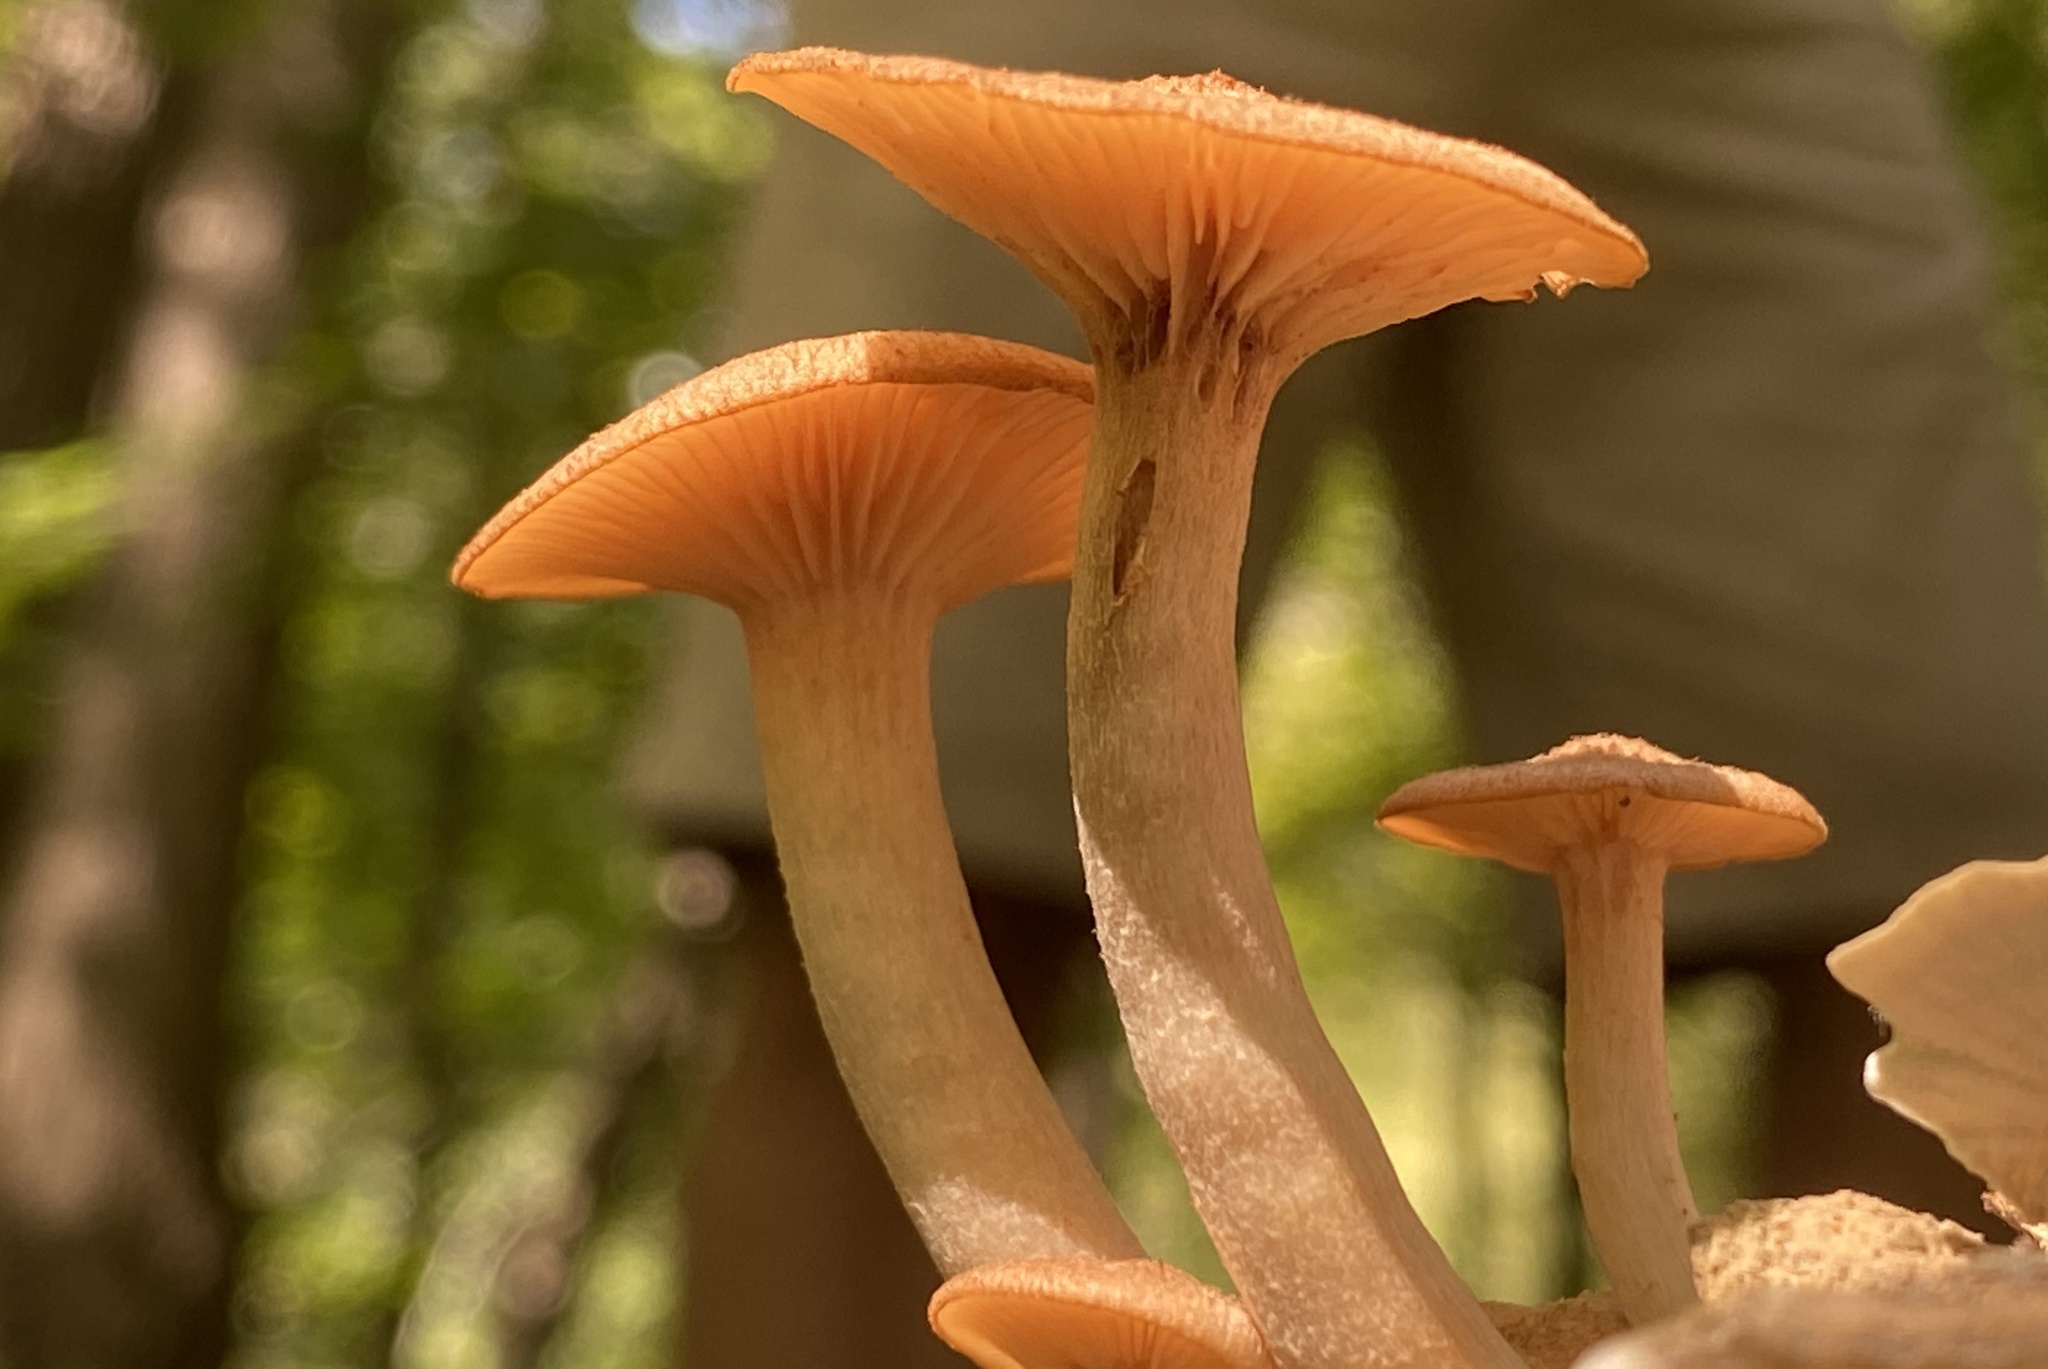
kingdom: Fungi
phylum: Basidiomycota
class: Agaricomycetes
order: Agaricales
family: Physalacriaceae
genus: Desarmillaria
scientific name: Desarmillaria caespitosa
